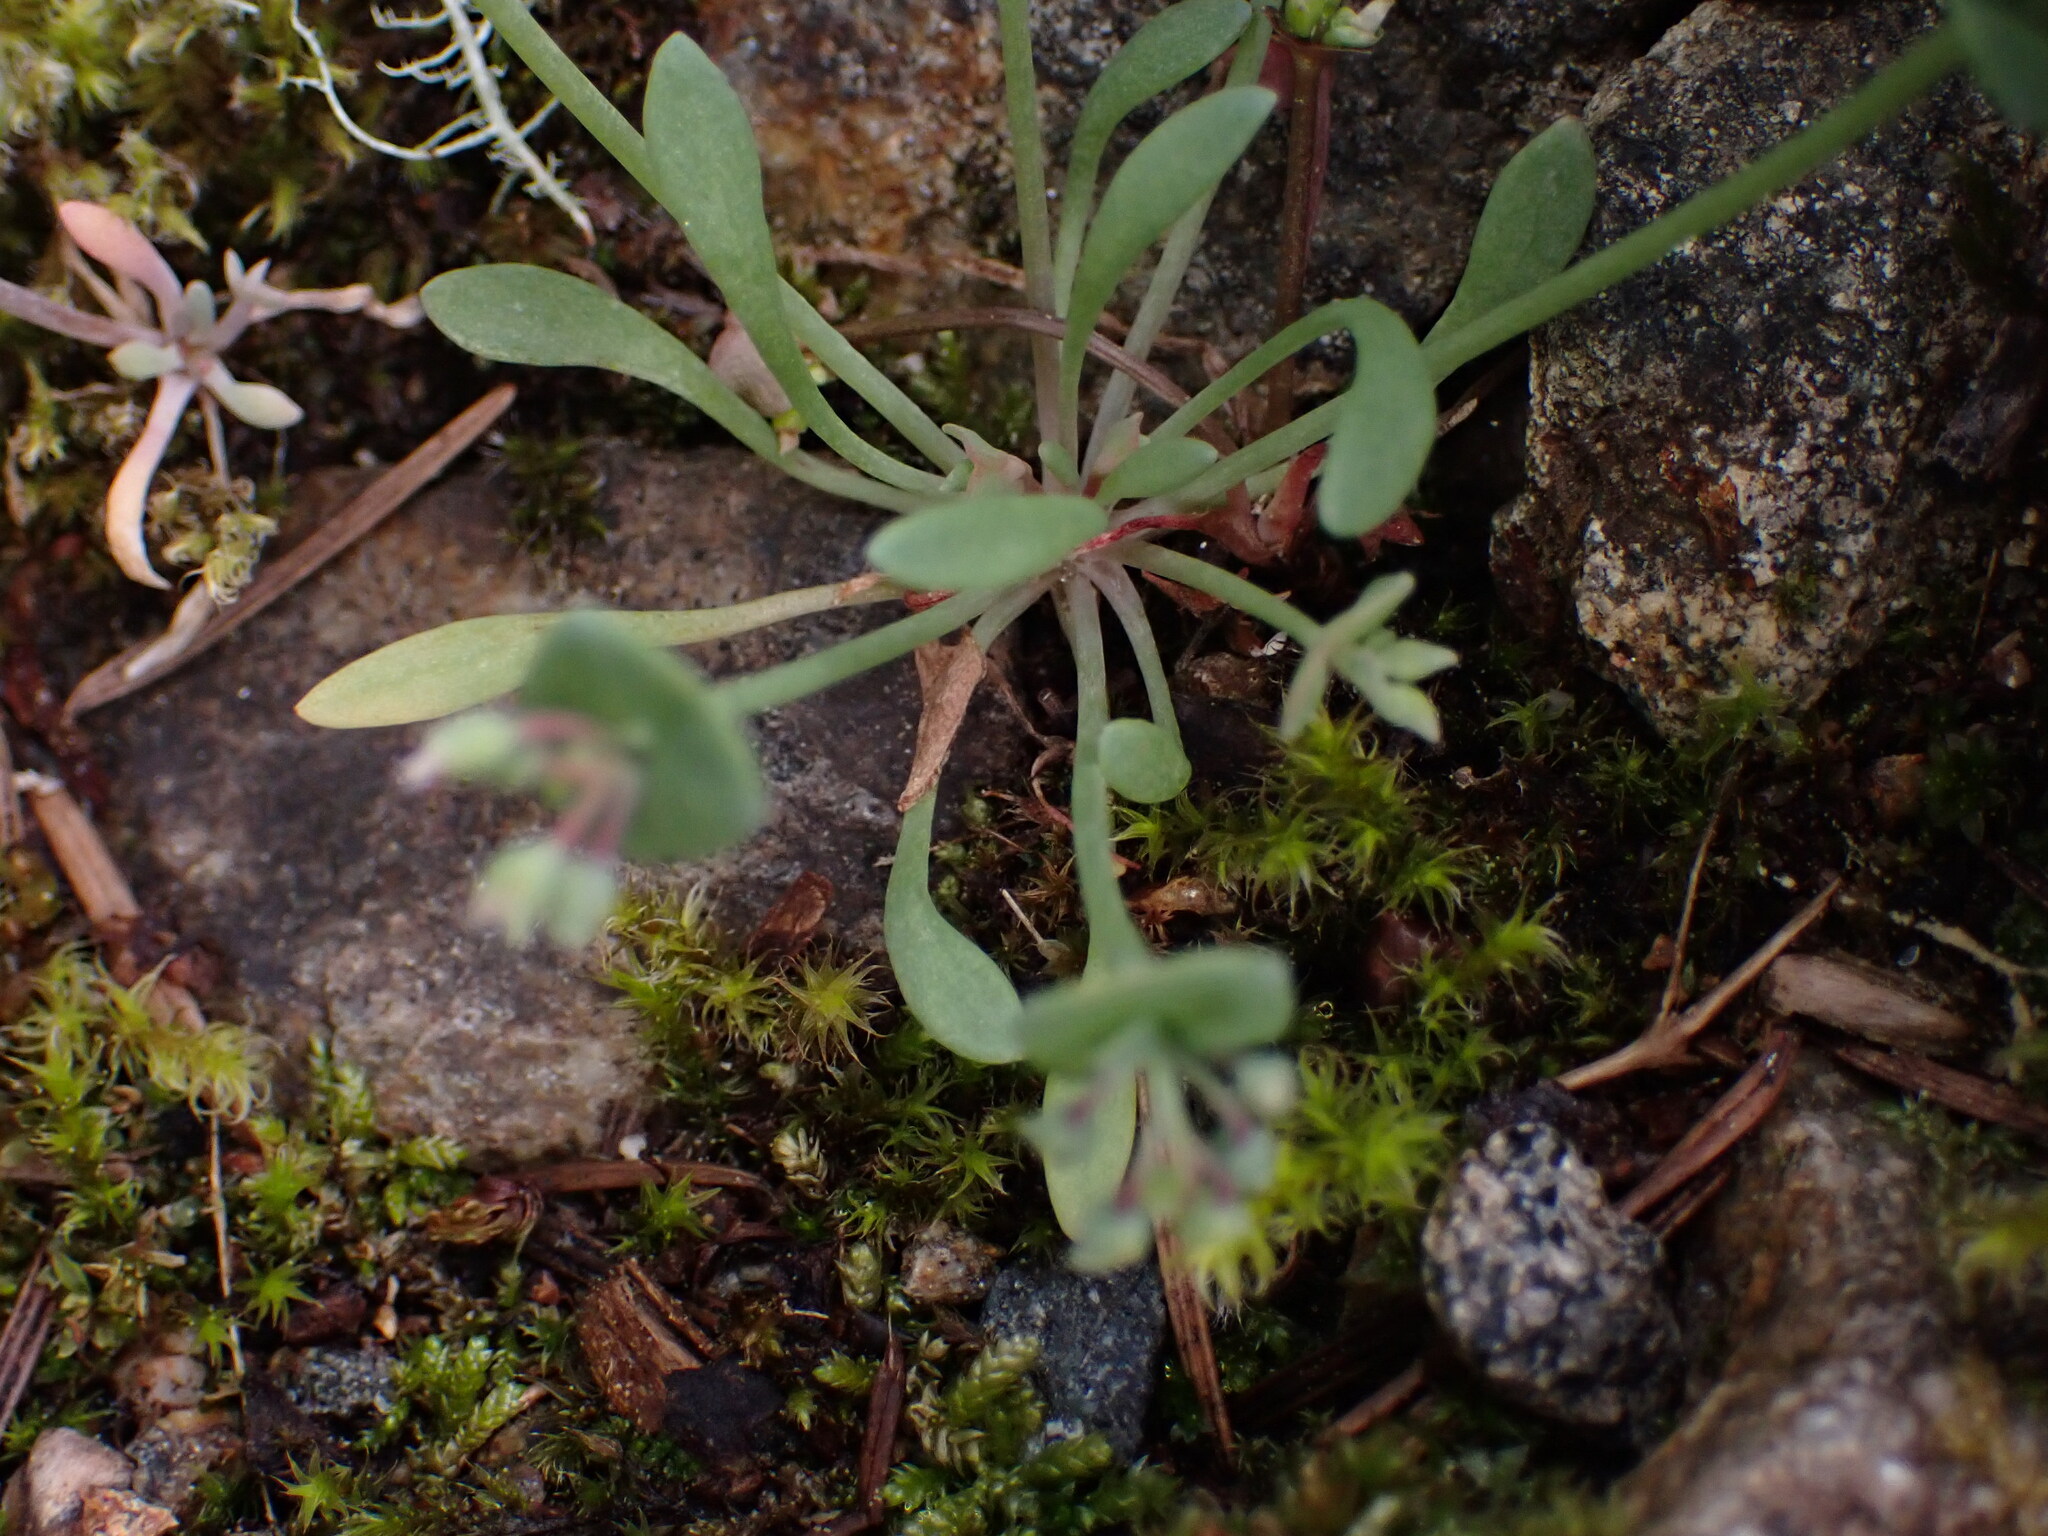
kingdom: Plantae
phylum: Tracheophyta
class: Magnoliopsida
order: Caryophyllales
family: Montiaceae
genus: Claytonia
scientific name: Claytonia exigua
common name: Pale spring beauty
